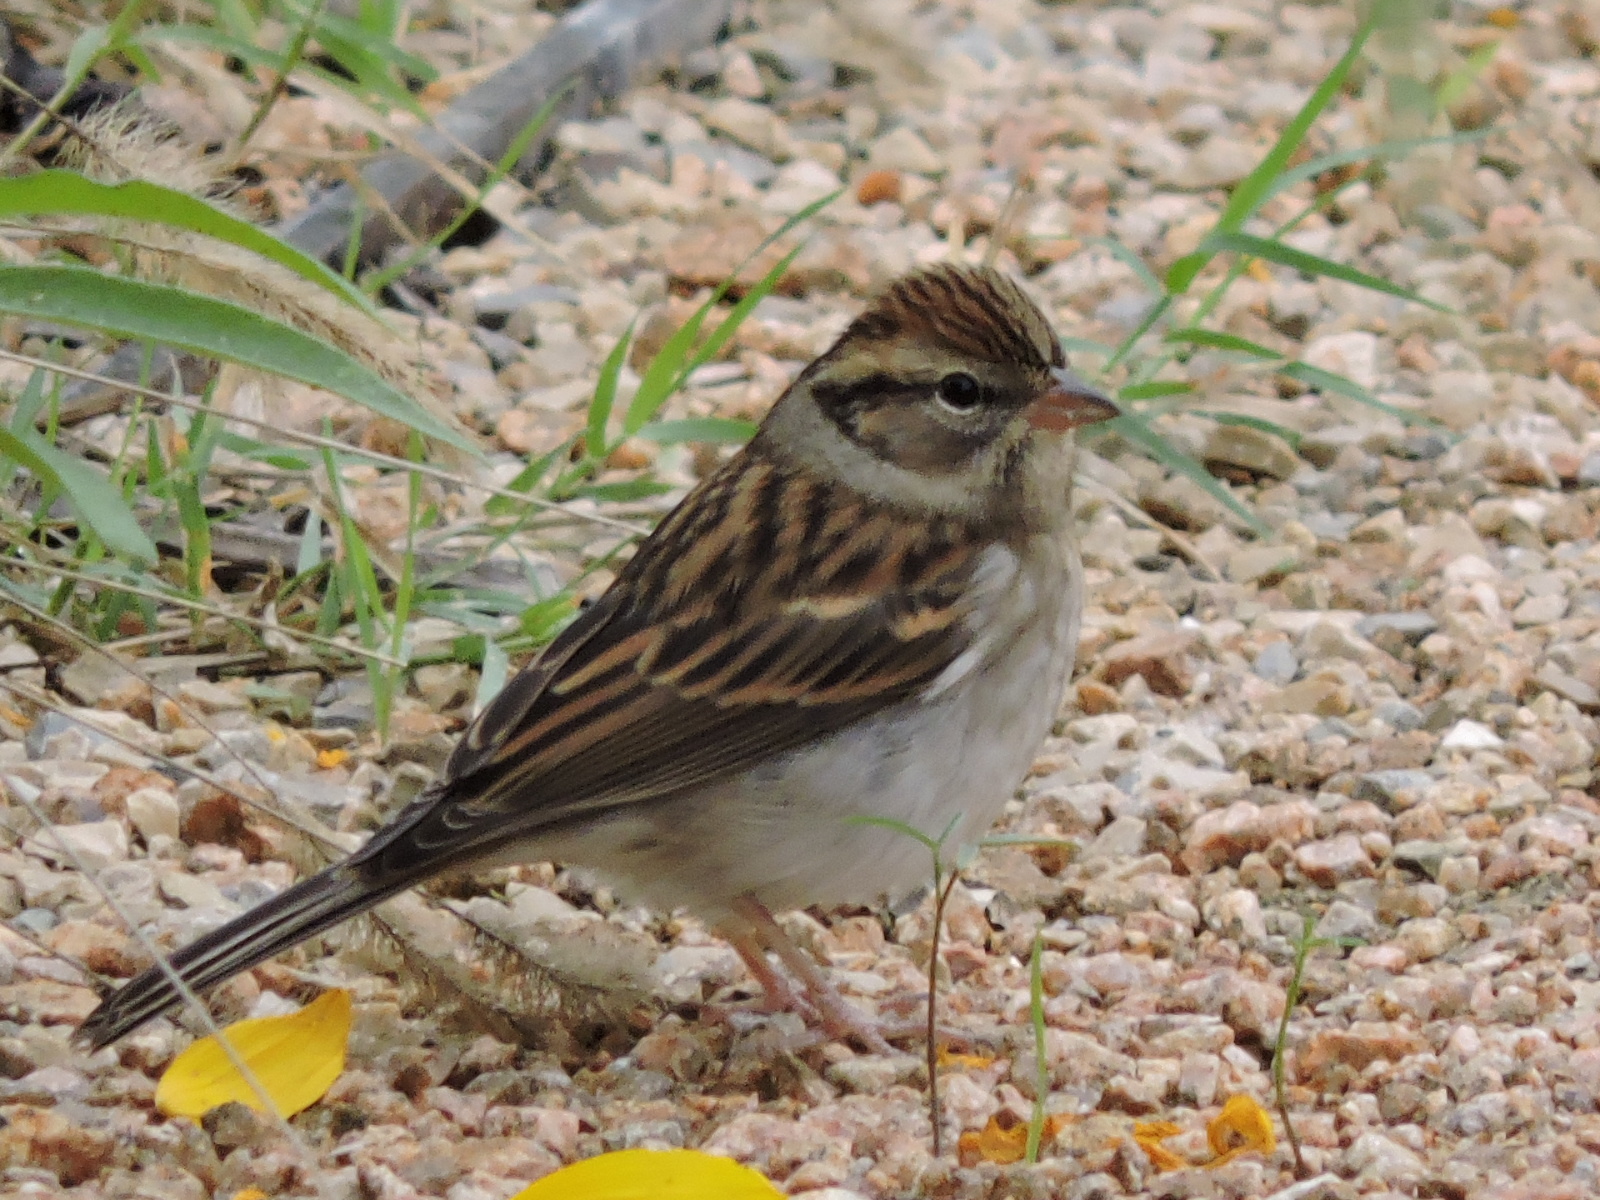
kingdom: Animalia
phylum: Chordata
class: Aves
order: Passeriformes
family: Passerellidae
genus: Spizella
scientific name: Spizella passerina
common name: Chipping sparrow
